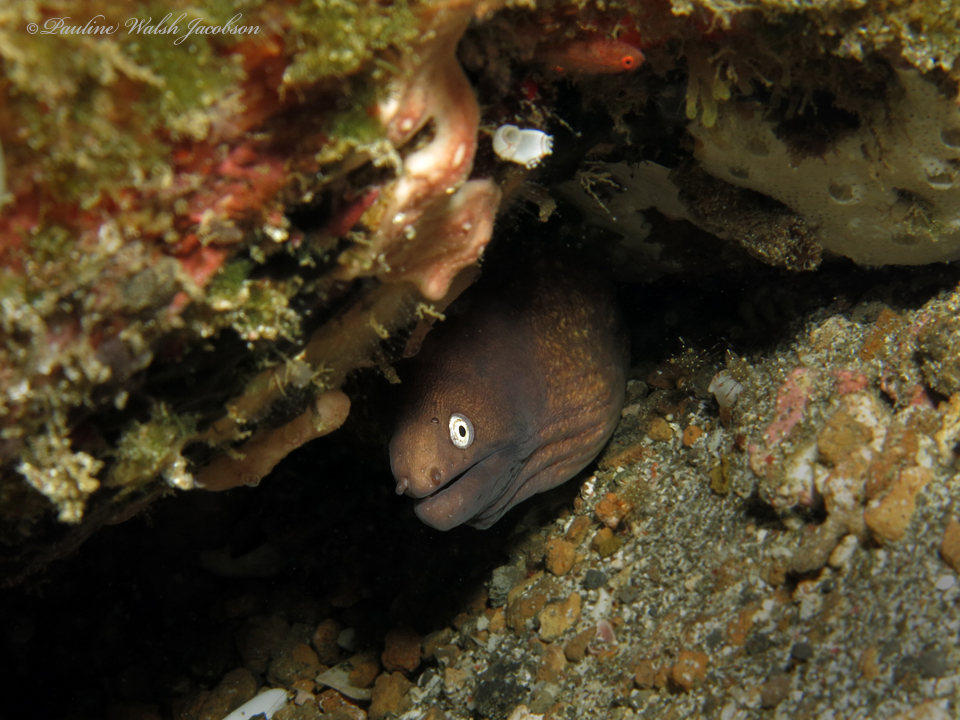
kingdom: Animalia
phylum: Chordata
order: Anguilliformes
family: Muraenidae
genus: Gymnothorax
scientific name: Gymnothorax thyrsoideus
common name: Greyface moray
